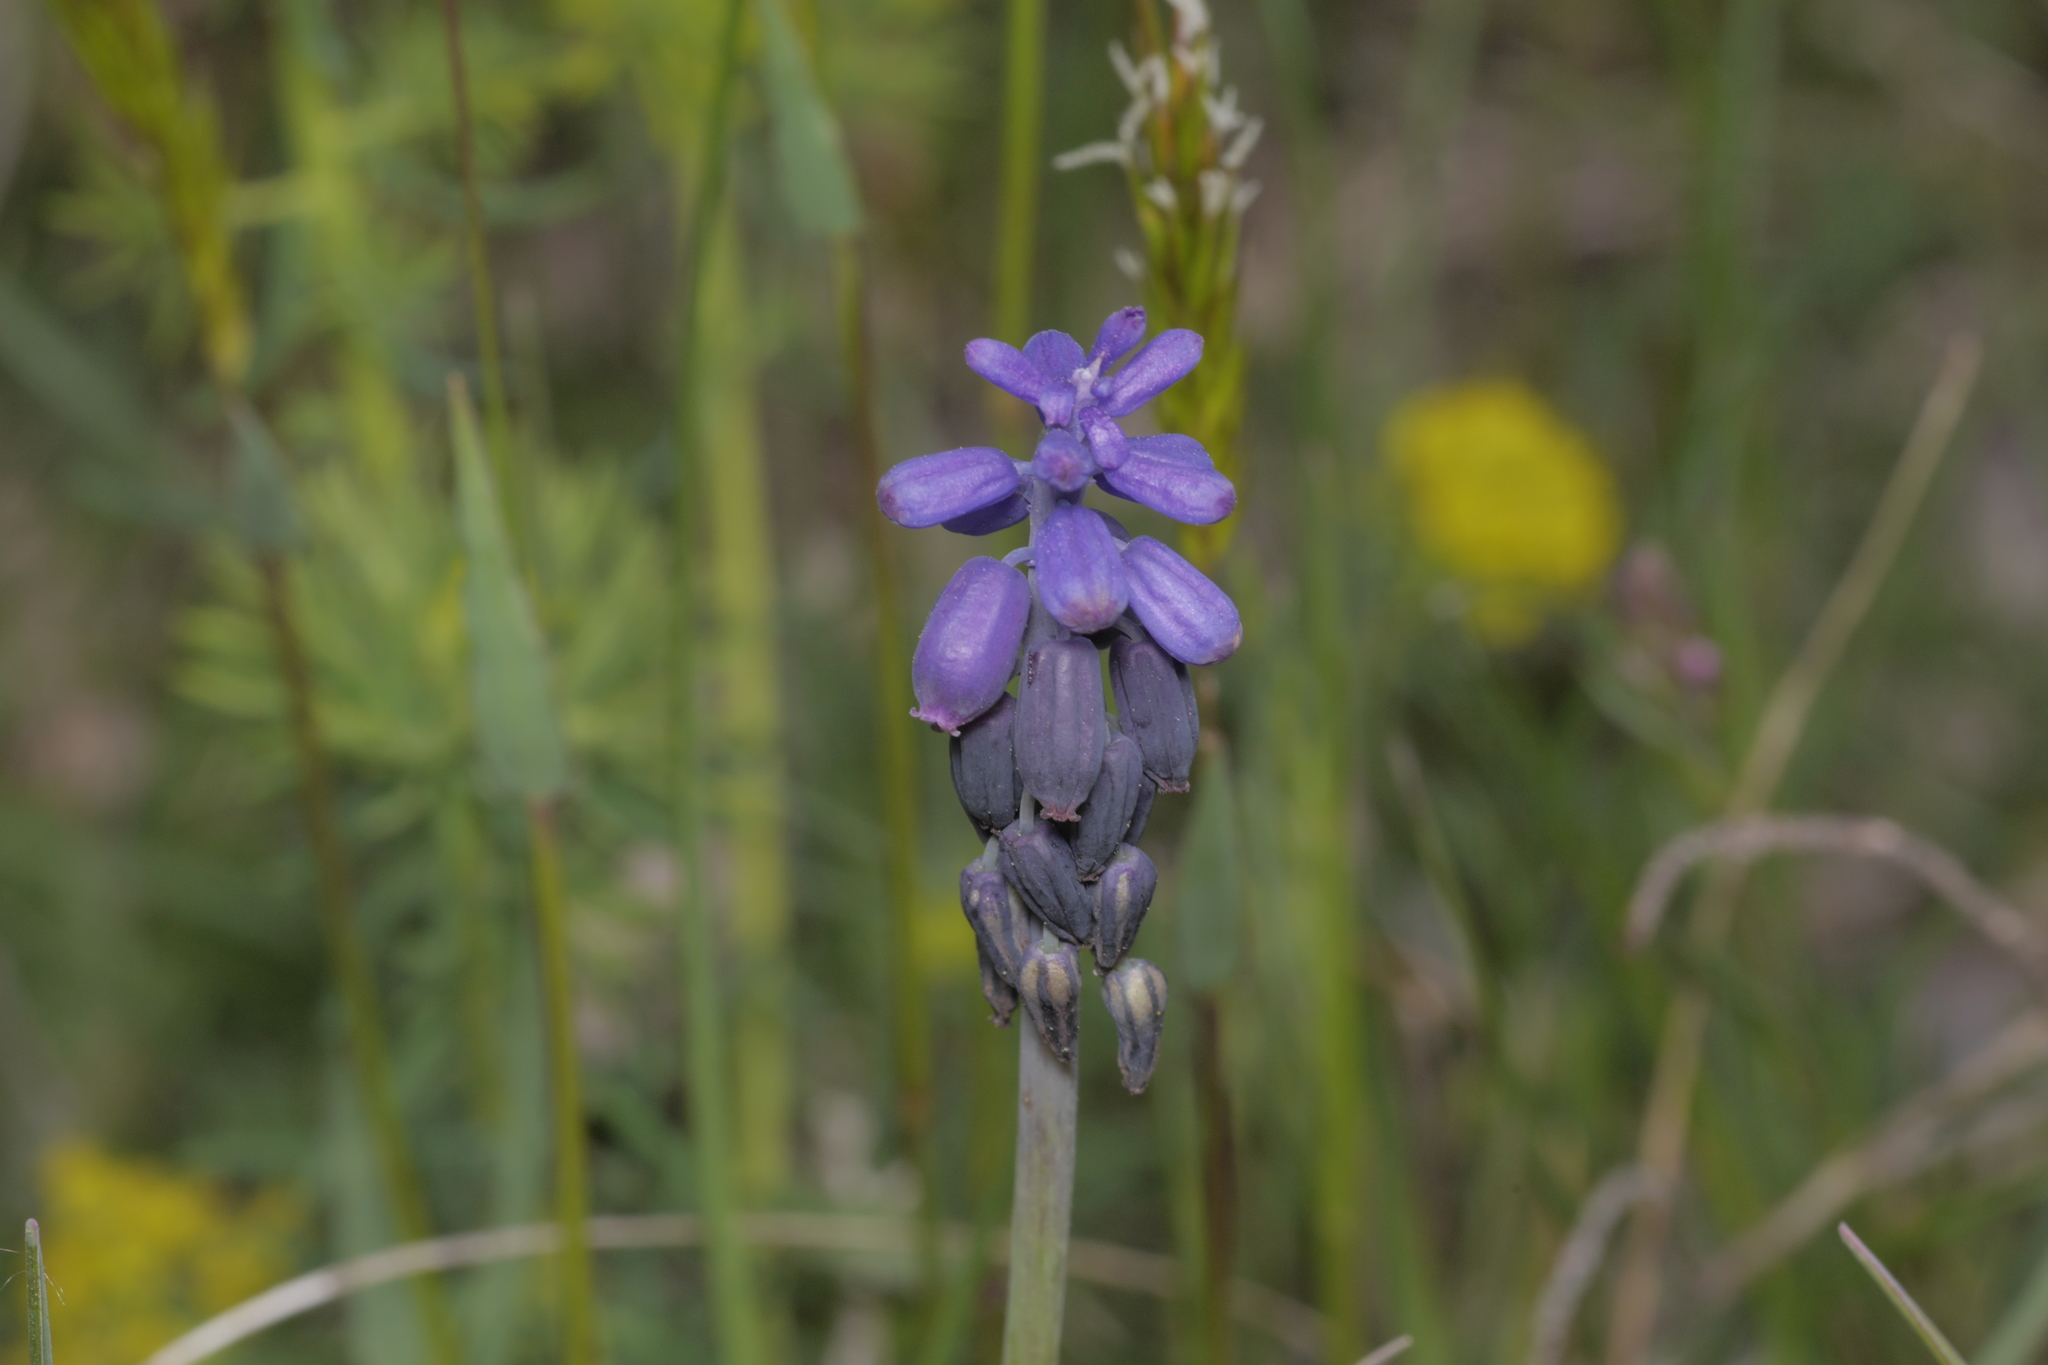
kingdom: Plantae
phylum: Tracheophyta
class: Liliopsida
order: Asparagales
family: Asparagaceae
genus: Muscari
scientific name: Muscari neglectum
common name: Grape-hyacinth
